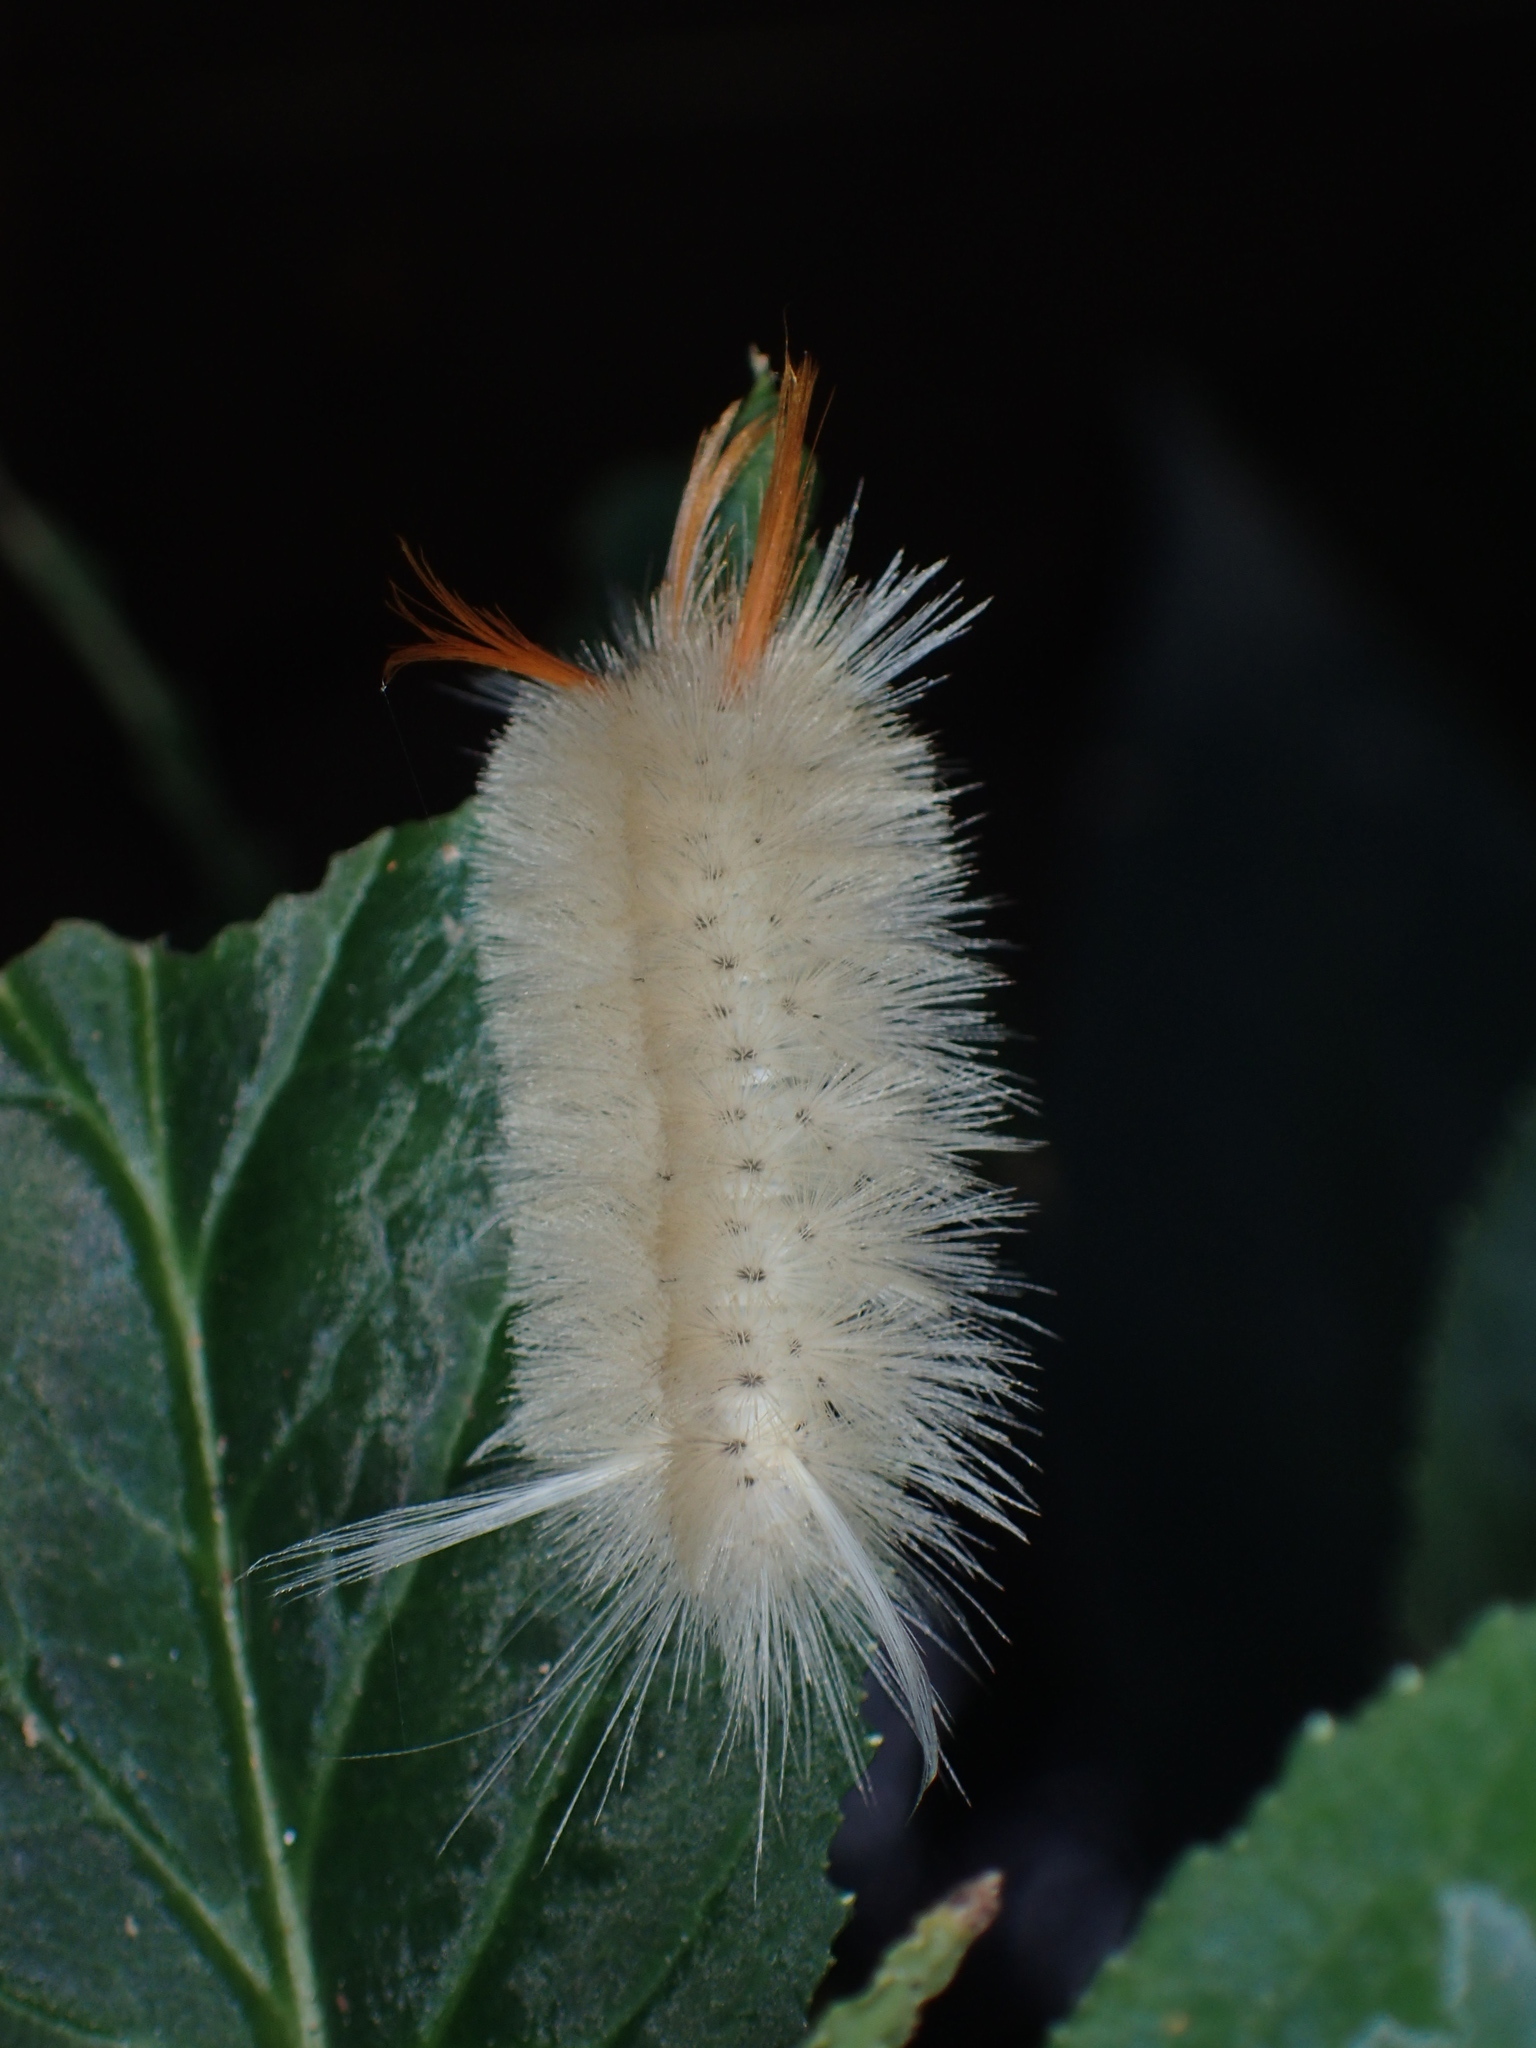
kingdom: Animalia
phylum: Arthropoda
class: Insecta
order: Lepidoptera
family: Erebidae
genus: Halysidota
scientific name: Halysidota harrisii
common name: Sycamore tussock moth
